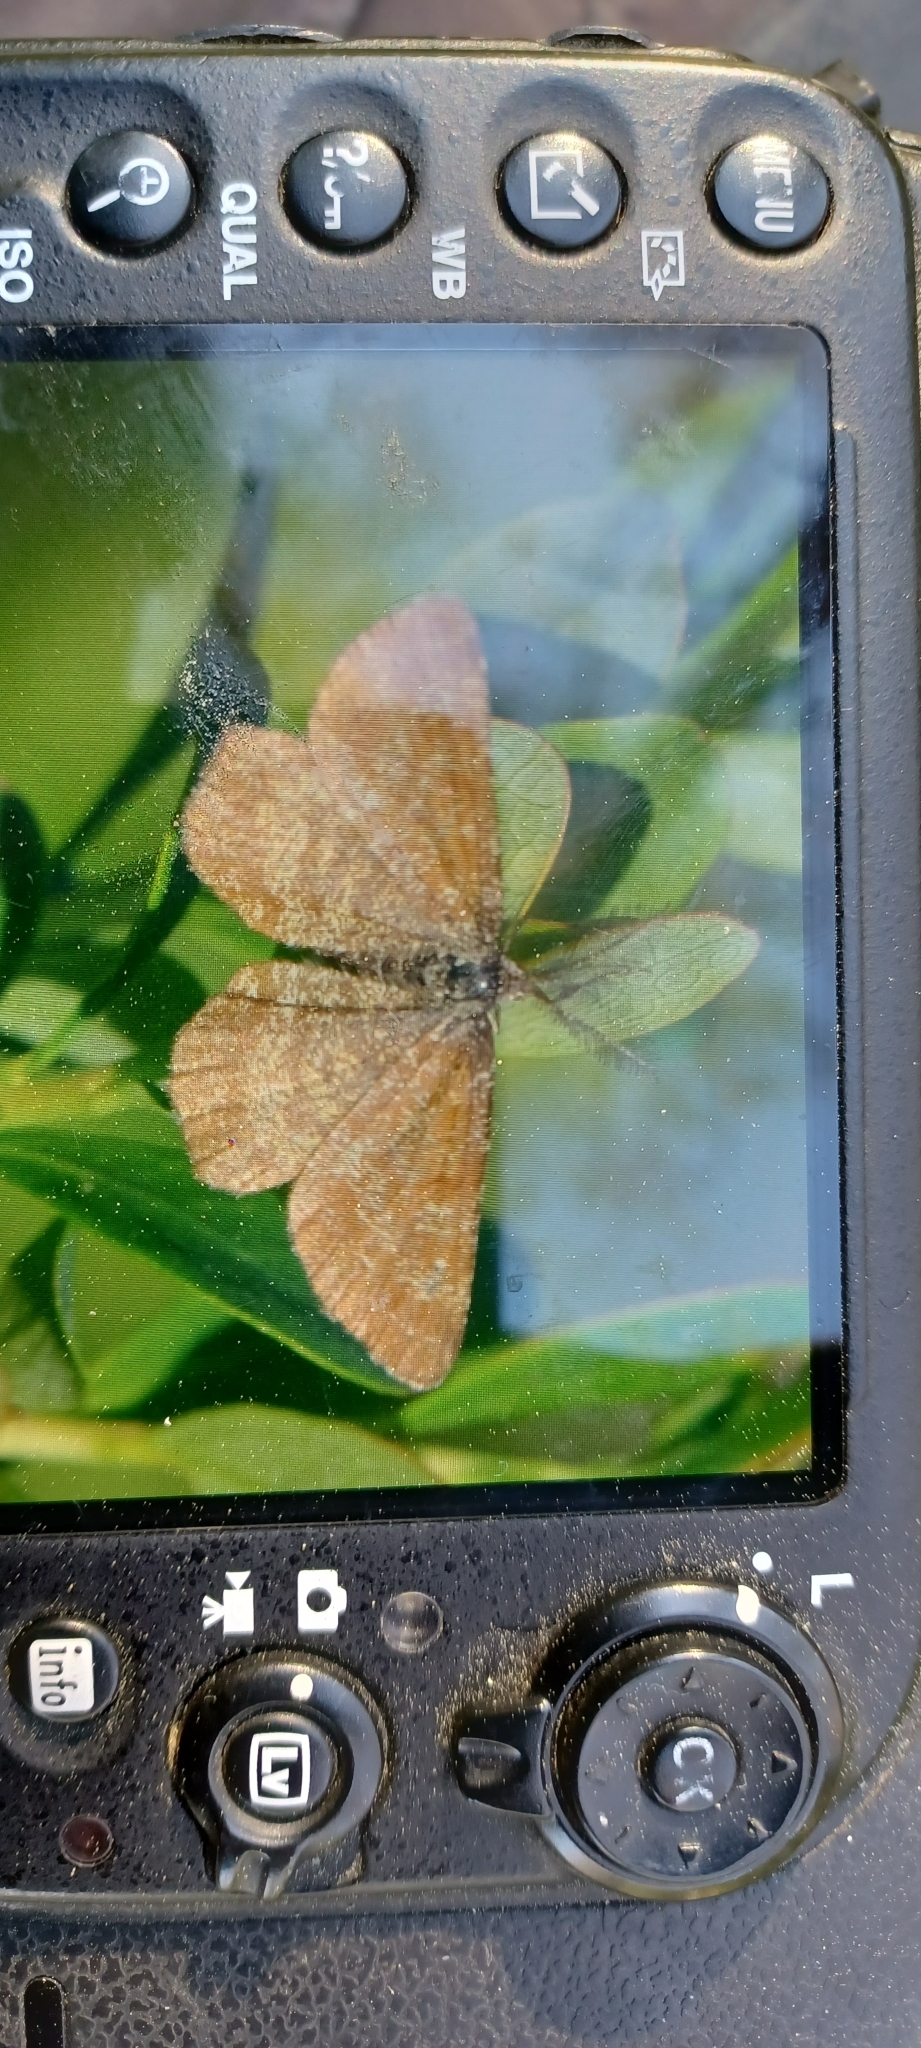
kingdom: Animalia
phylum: Arthropoda
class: Insecta
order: Lepidoptera
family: Geometridae
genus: Ematurga
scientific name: Ematurga atomaria
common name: Common heath
